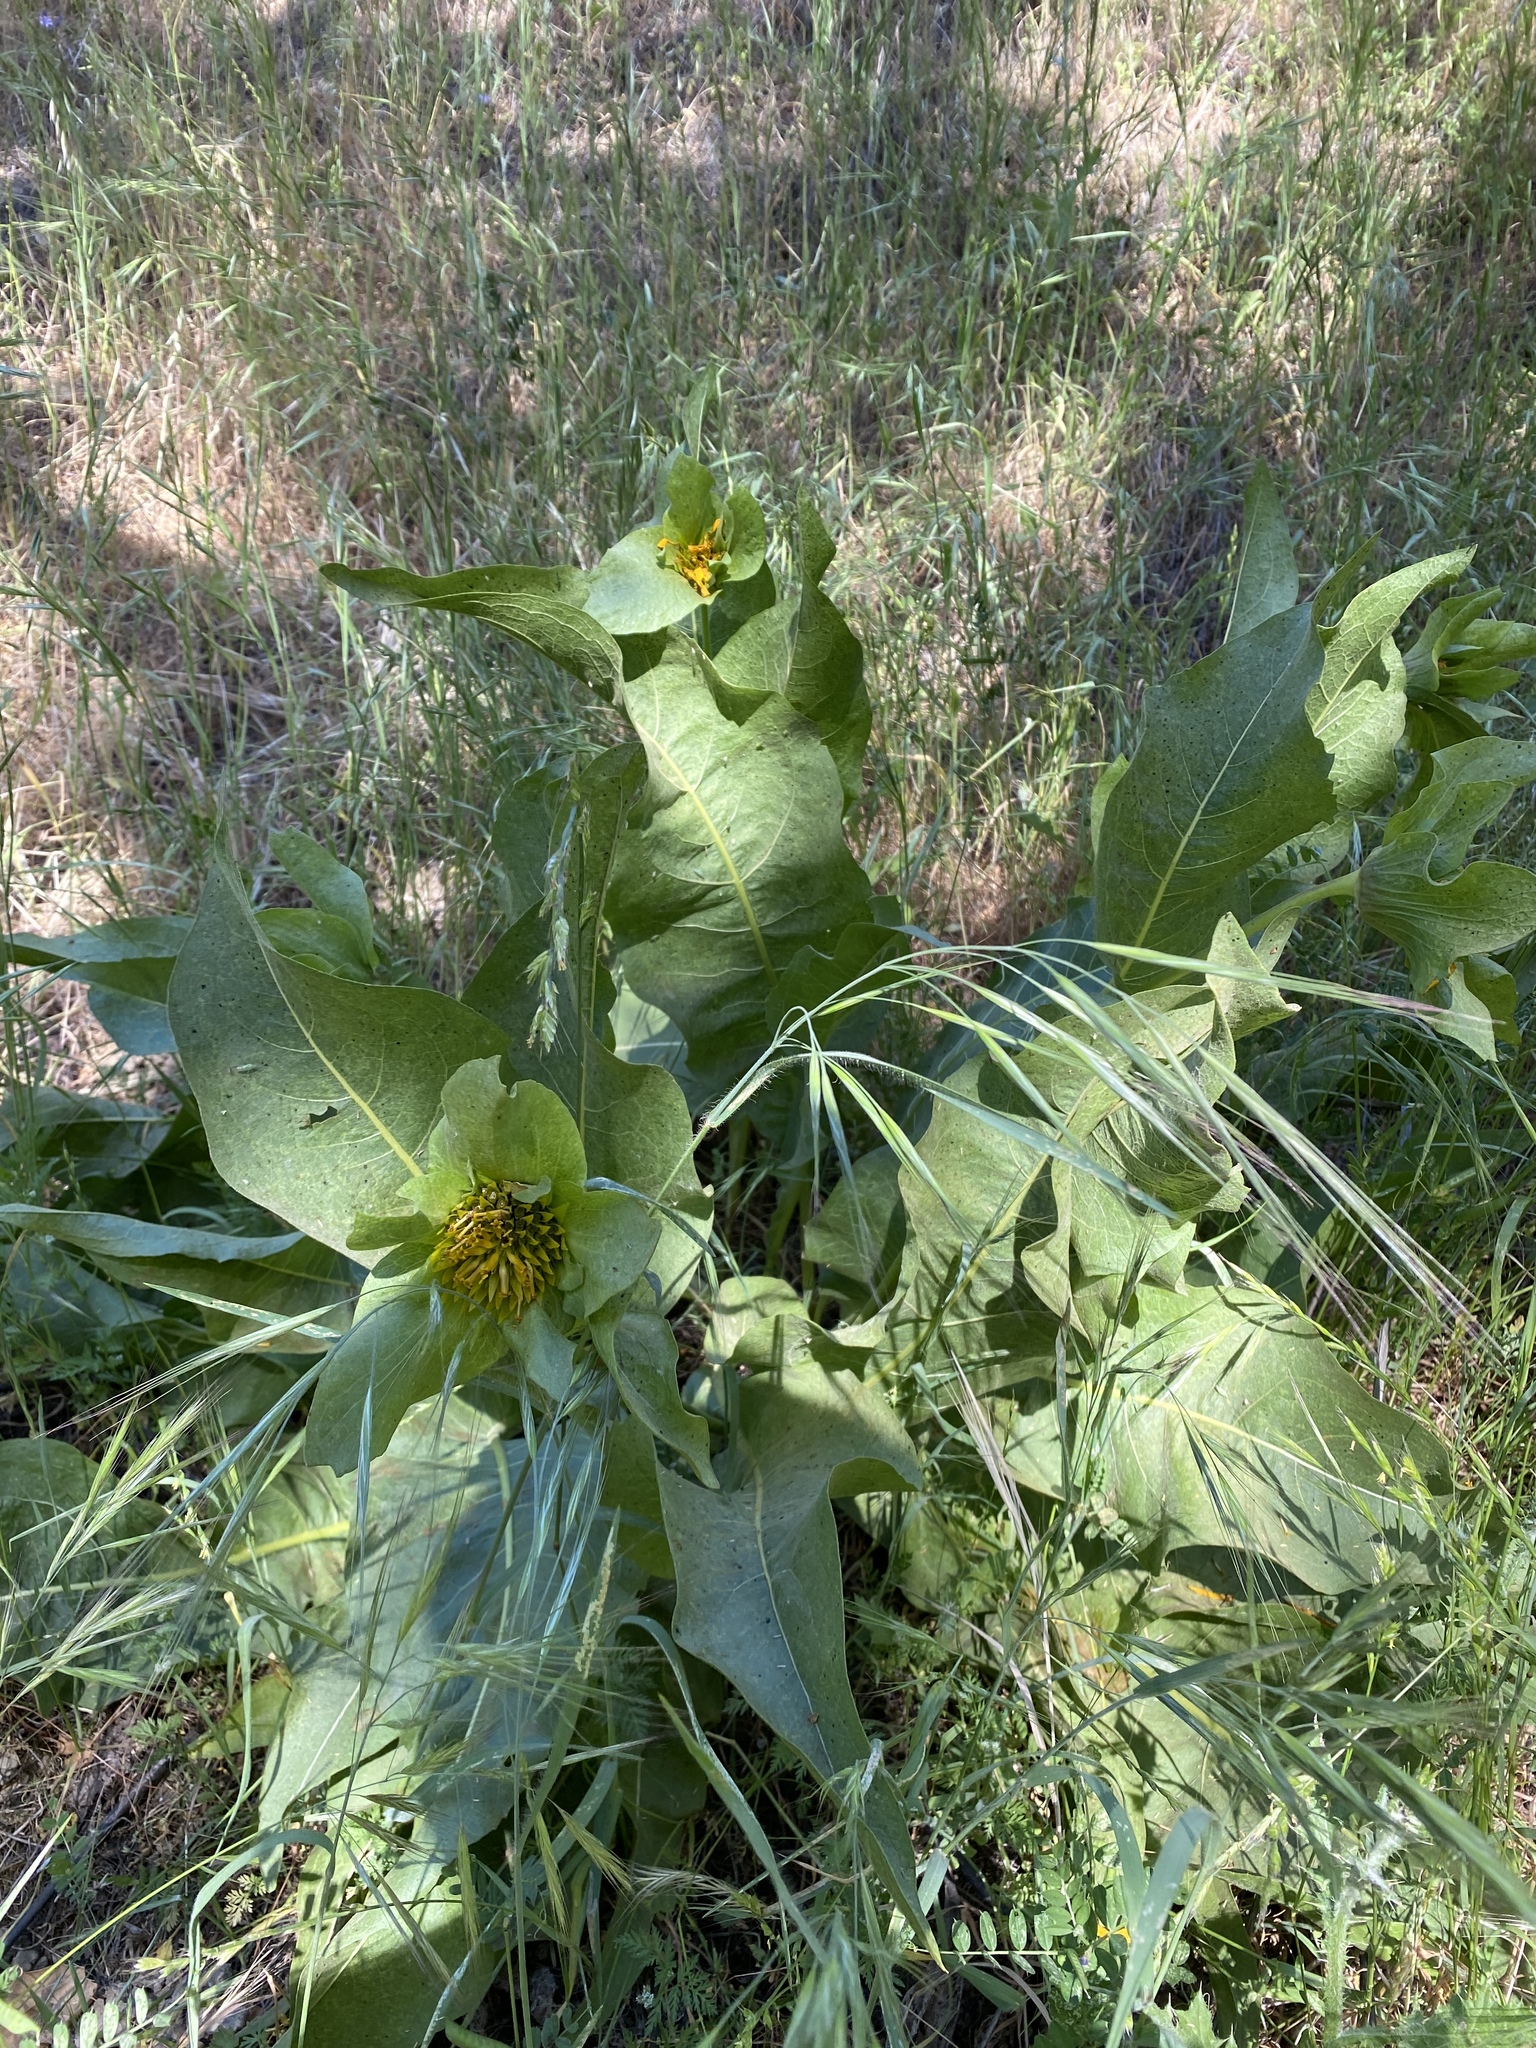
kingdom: Plantae
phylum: Tracheophyta
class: Magnoliopsida
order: Asterales
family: Asteraceae
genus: Wyethia
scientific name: Wyethia glabra
